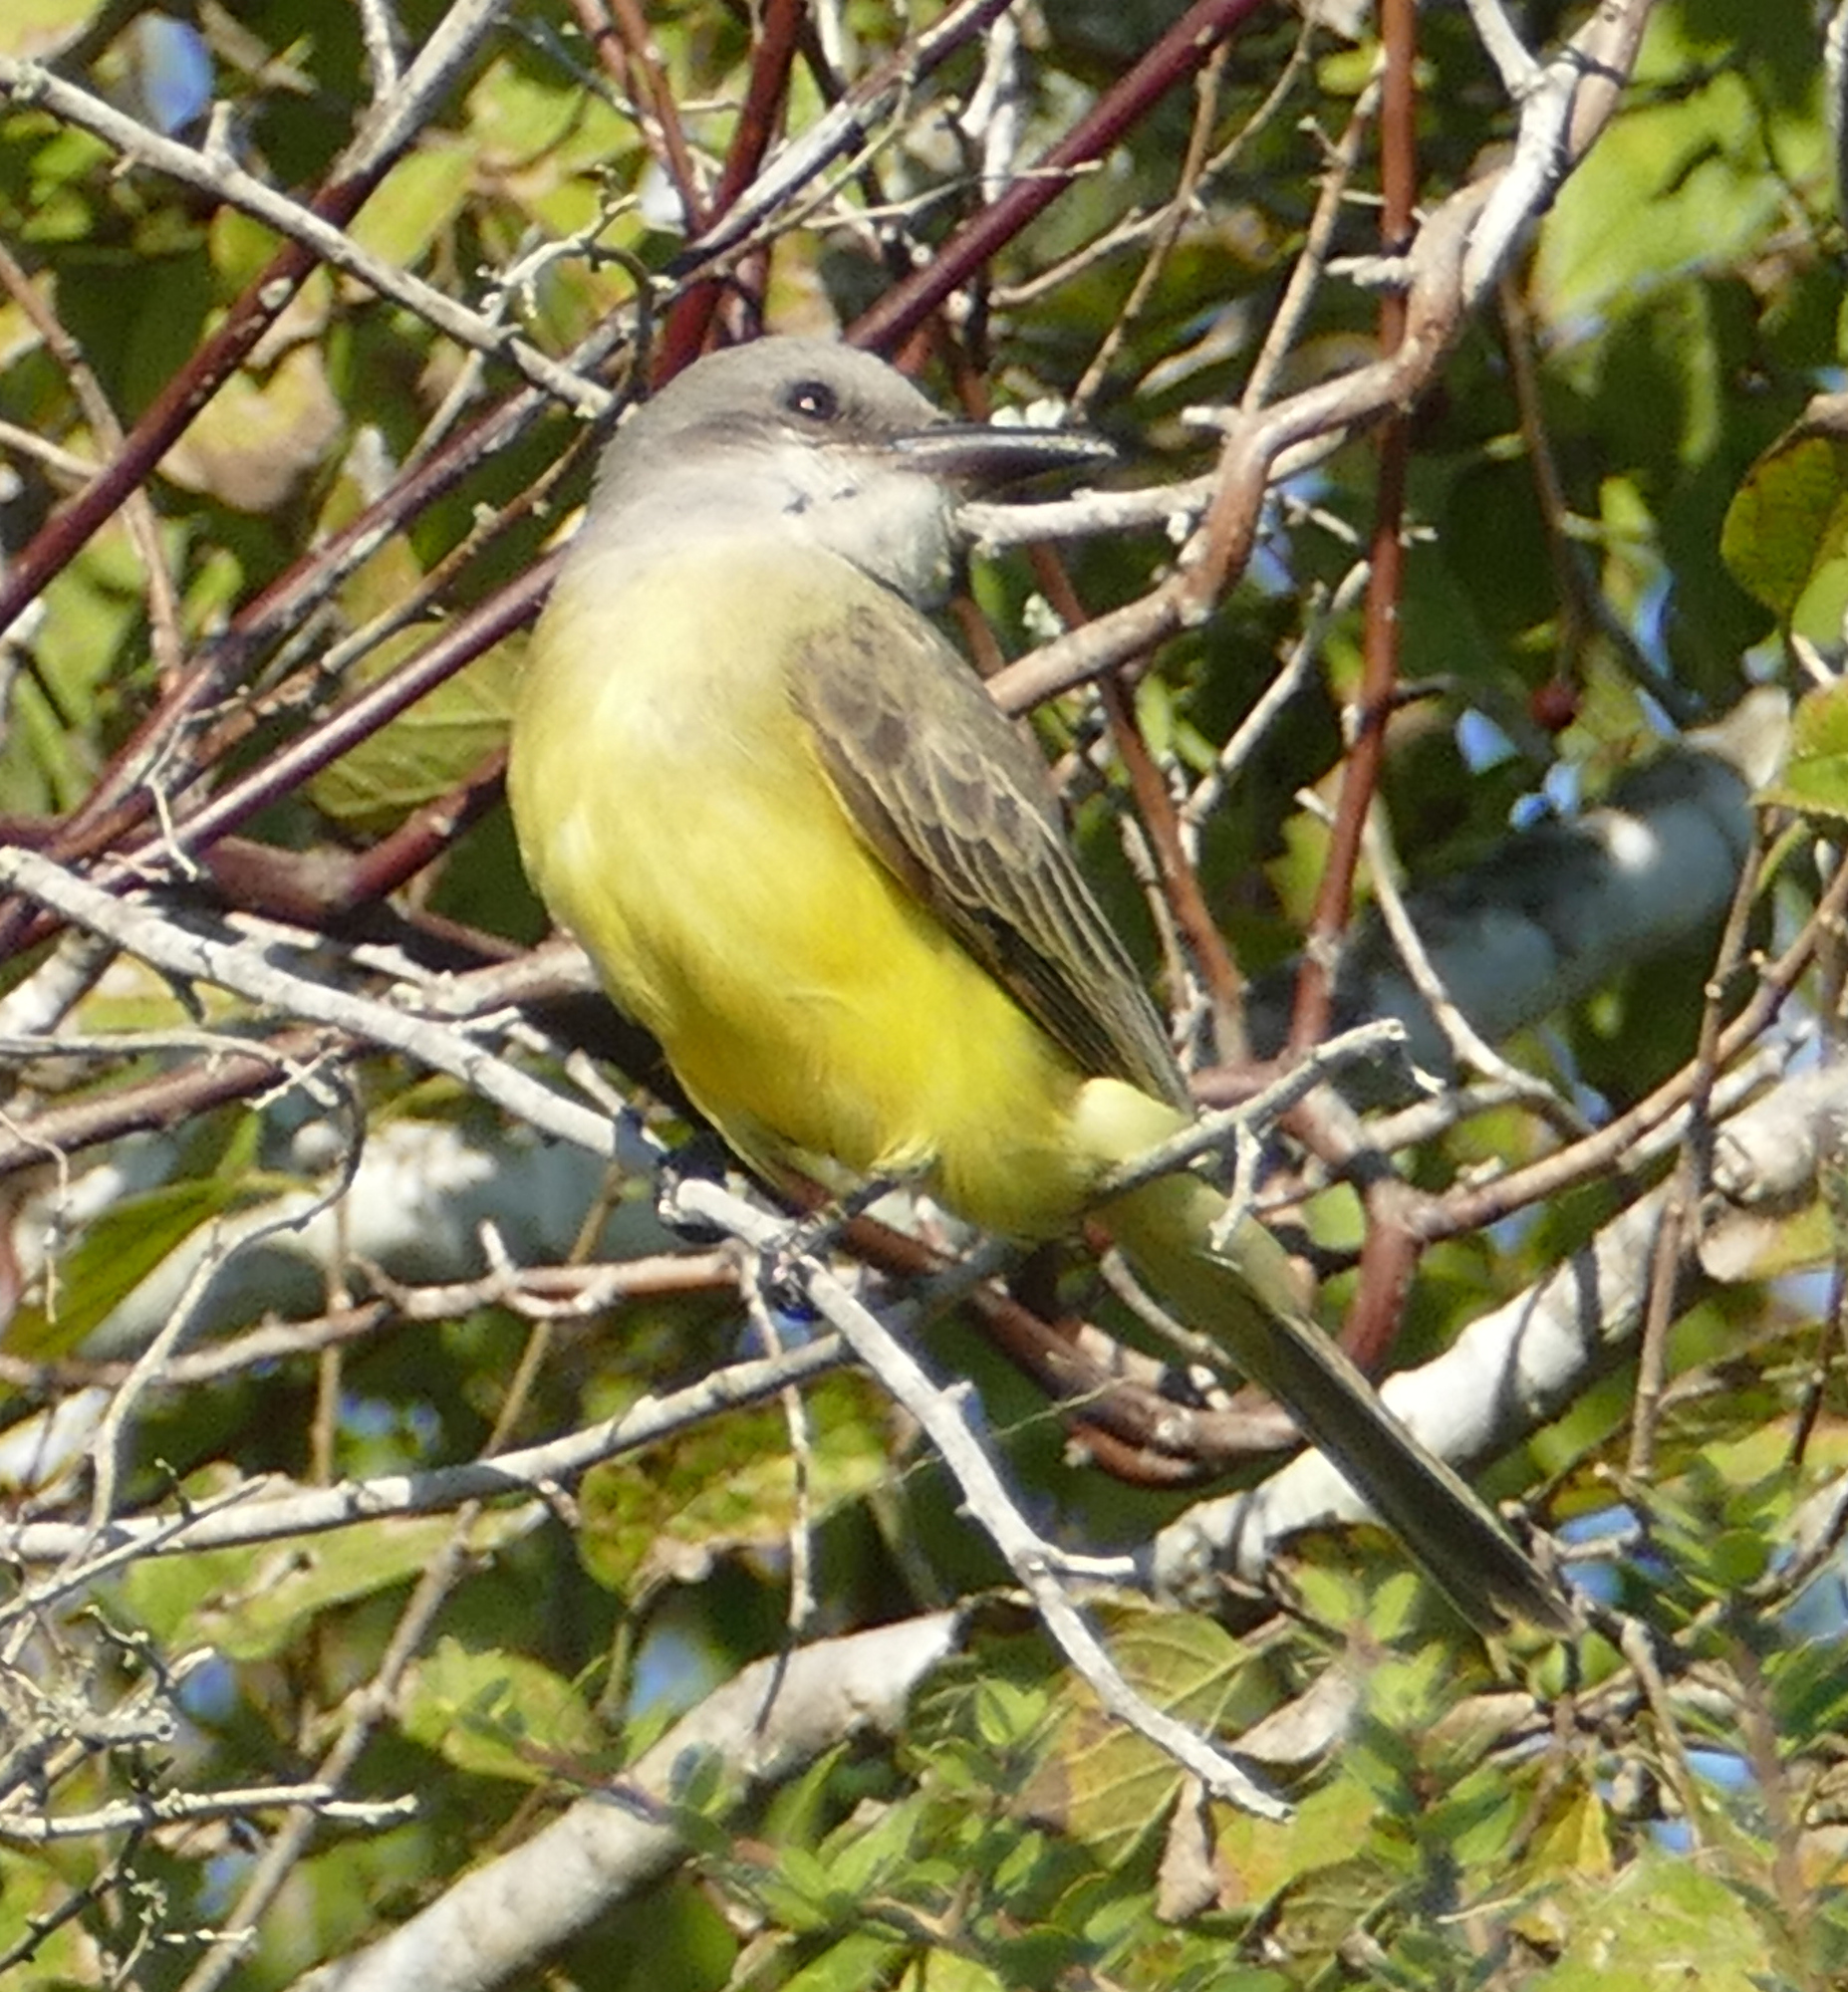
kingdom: Animalia
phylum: Chordata
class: Aves
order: Passeriformes
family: Tyrannidae
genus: Tyrannus
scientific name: Tyrannus melancholicus
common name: Tropical kingbird
